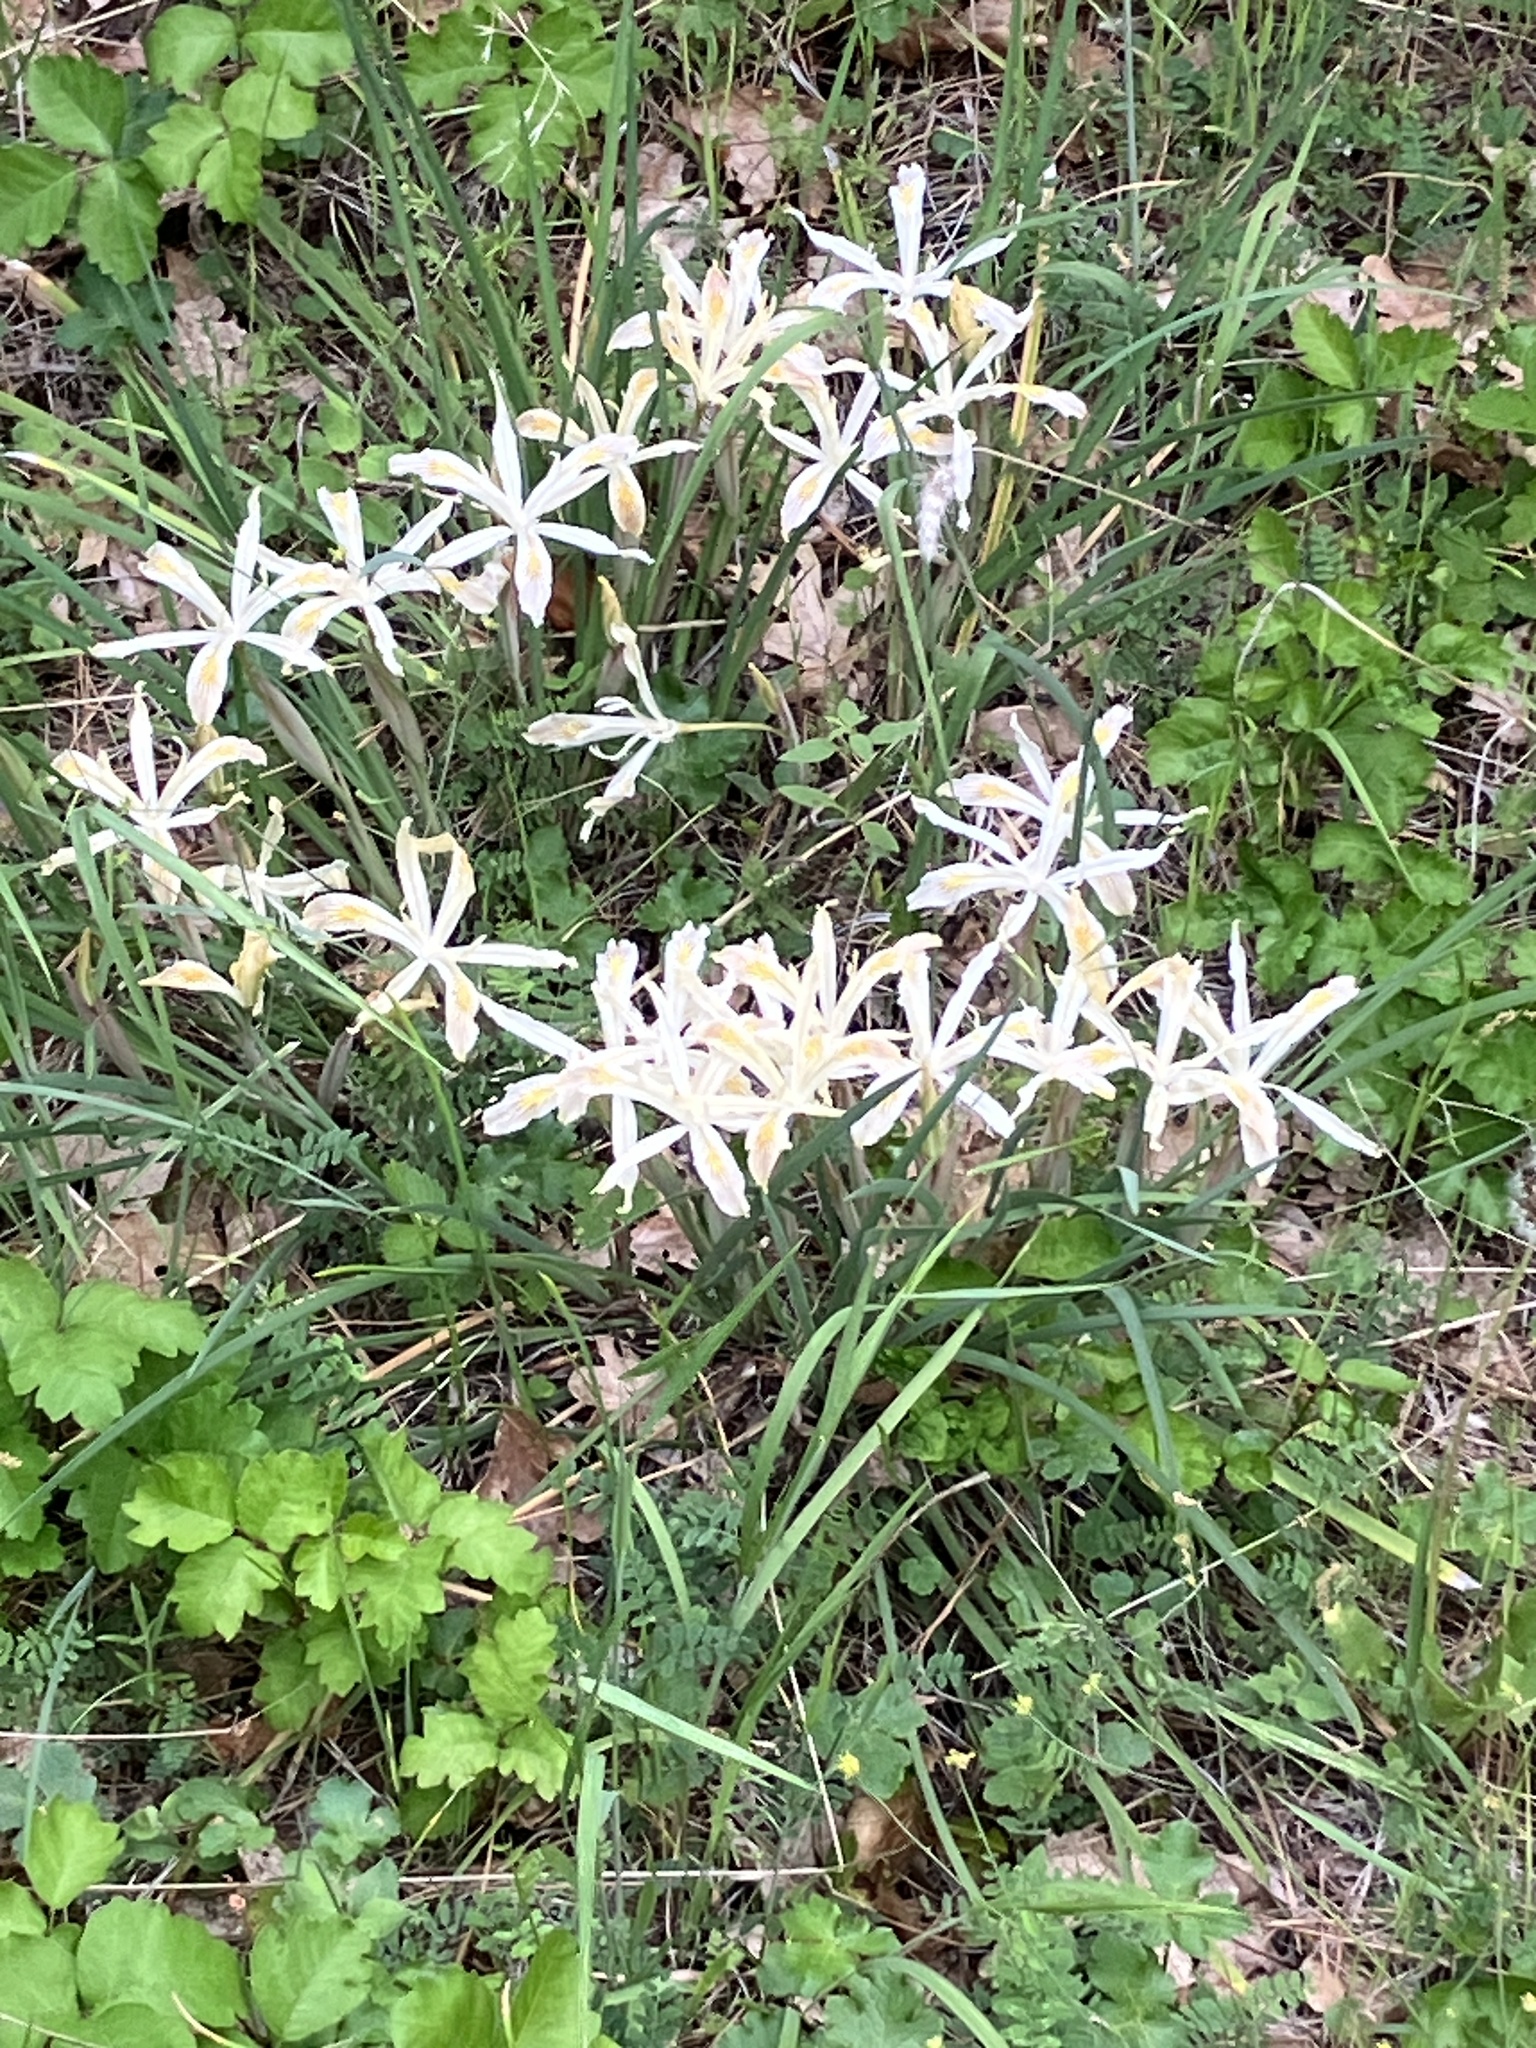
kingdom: Plantae
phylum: Tracheophyta
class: Liliopsida
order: Asparagales
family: Iridaceae
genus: Iris
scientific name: Iris chrysophylla
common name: Yellow-leaf iris
